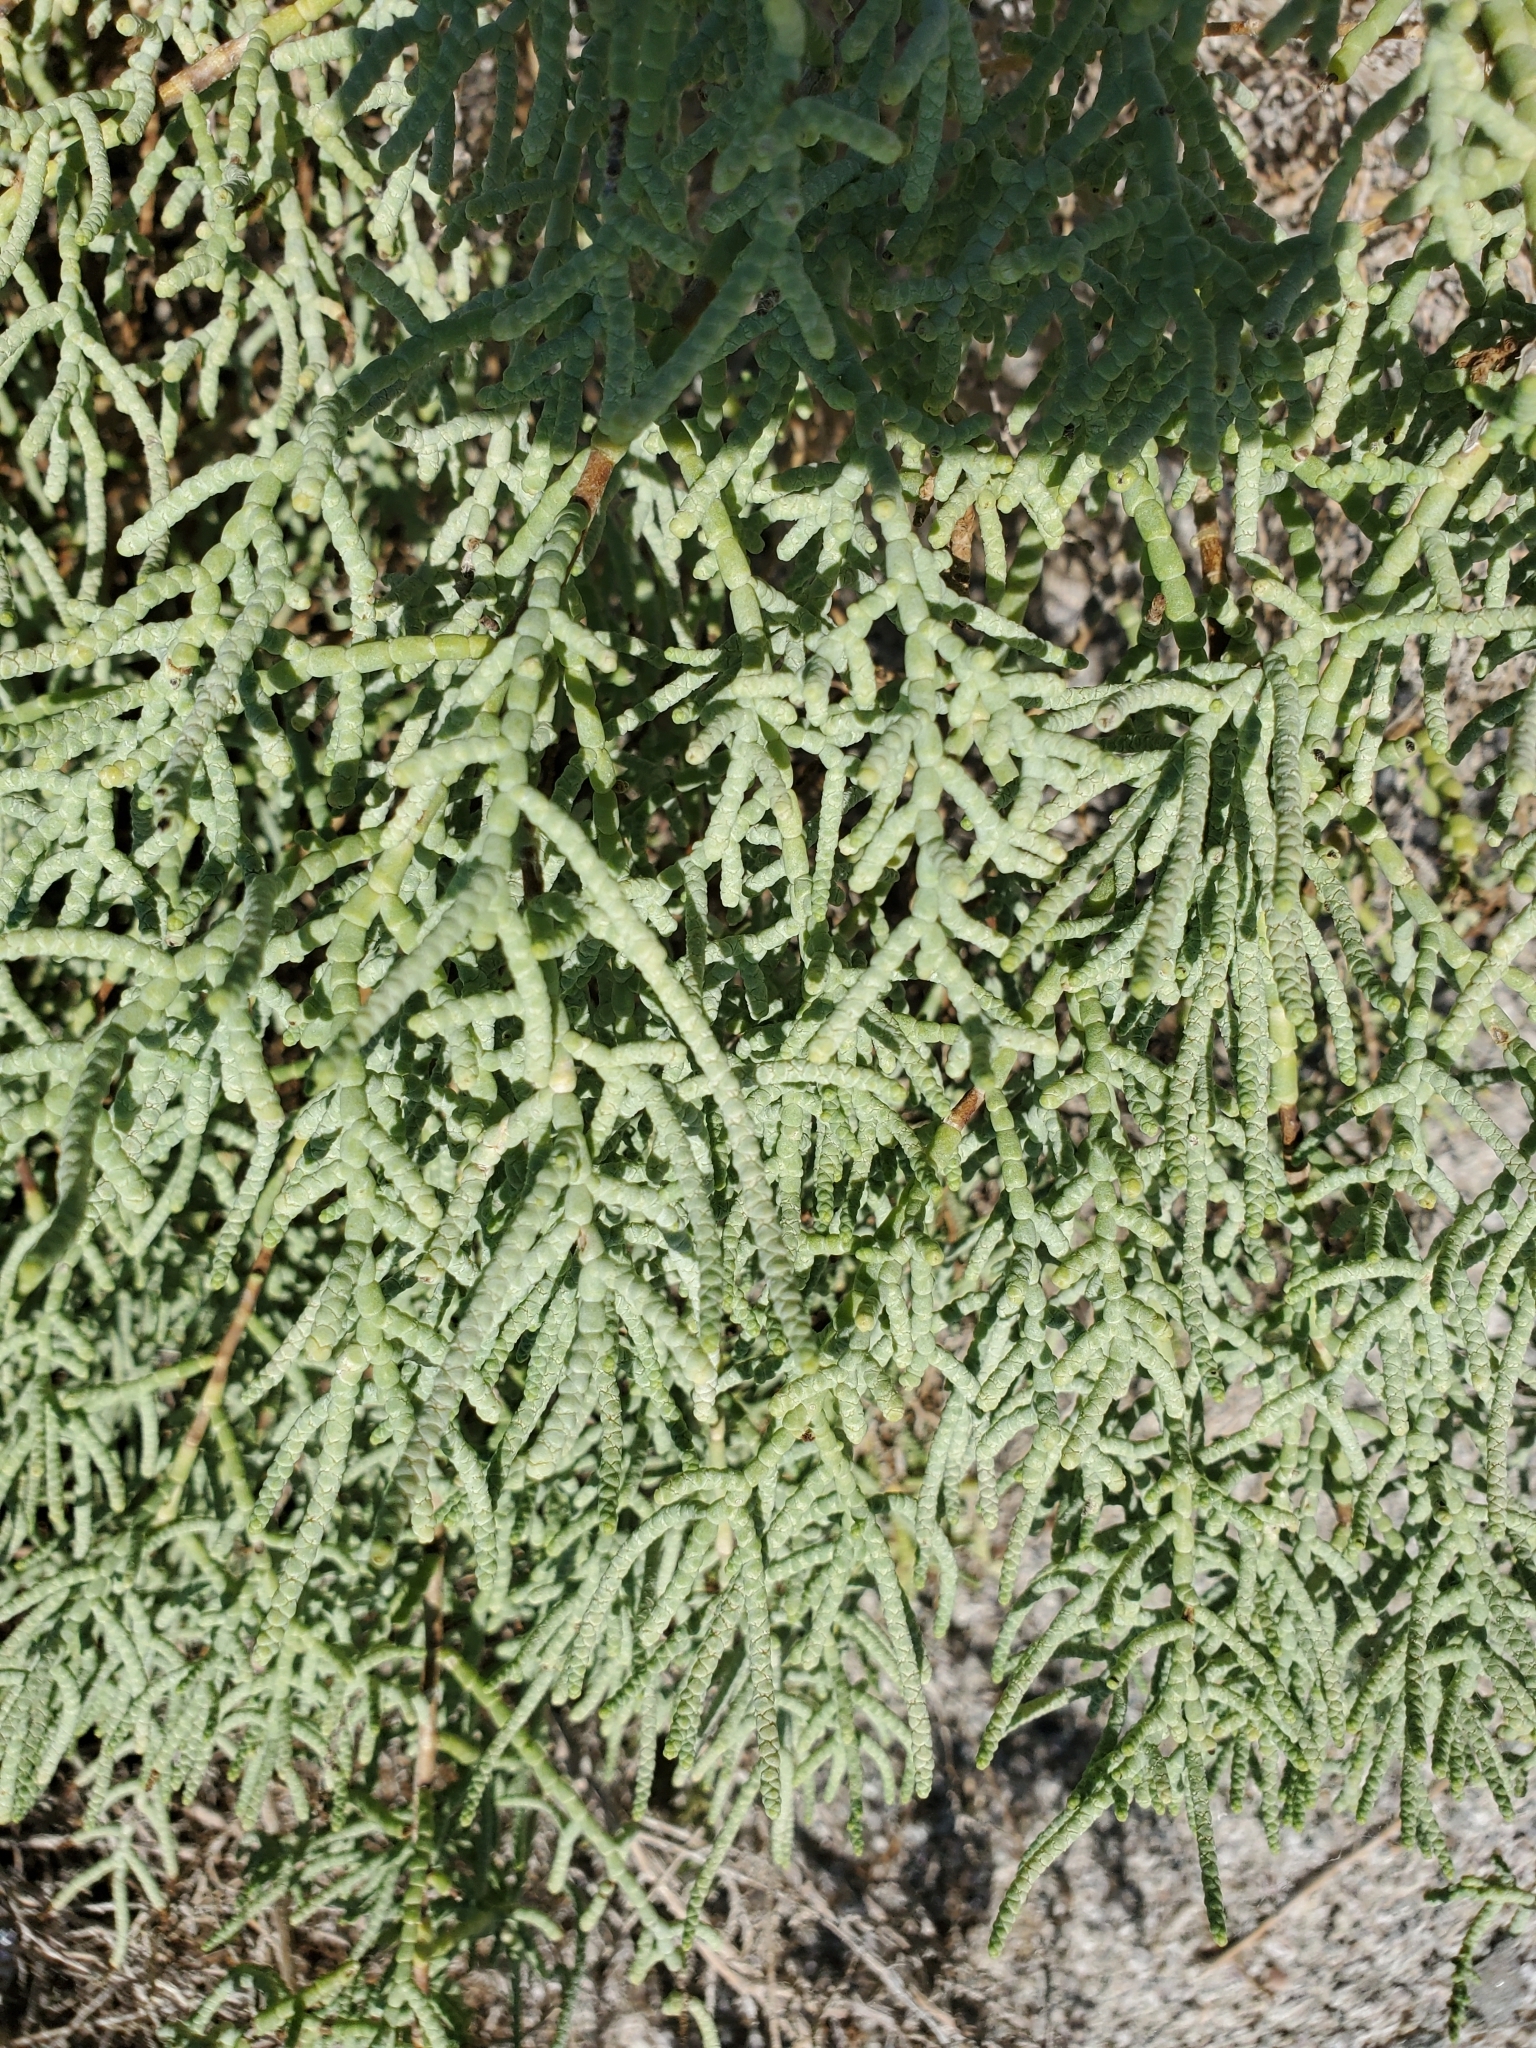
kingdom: Plantae
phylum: Tracheophyta
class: Magnoliopsida
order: Caryophyllales
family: Amaranthaceae
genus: Allenrolfea
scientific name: Allenrolfea occidentalis
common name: Iodine-bush
